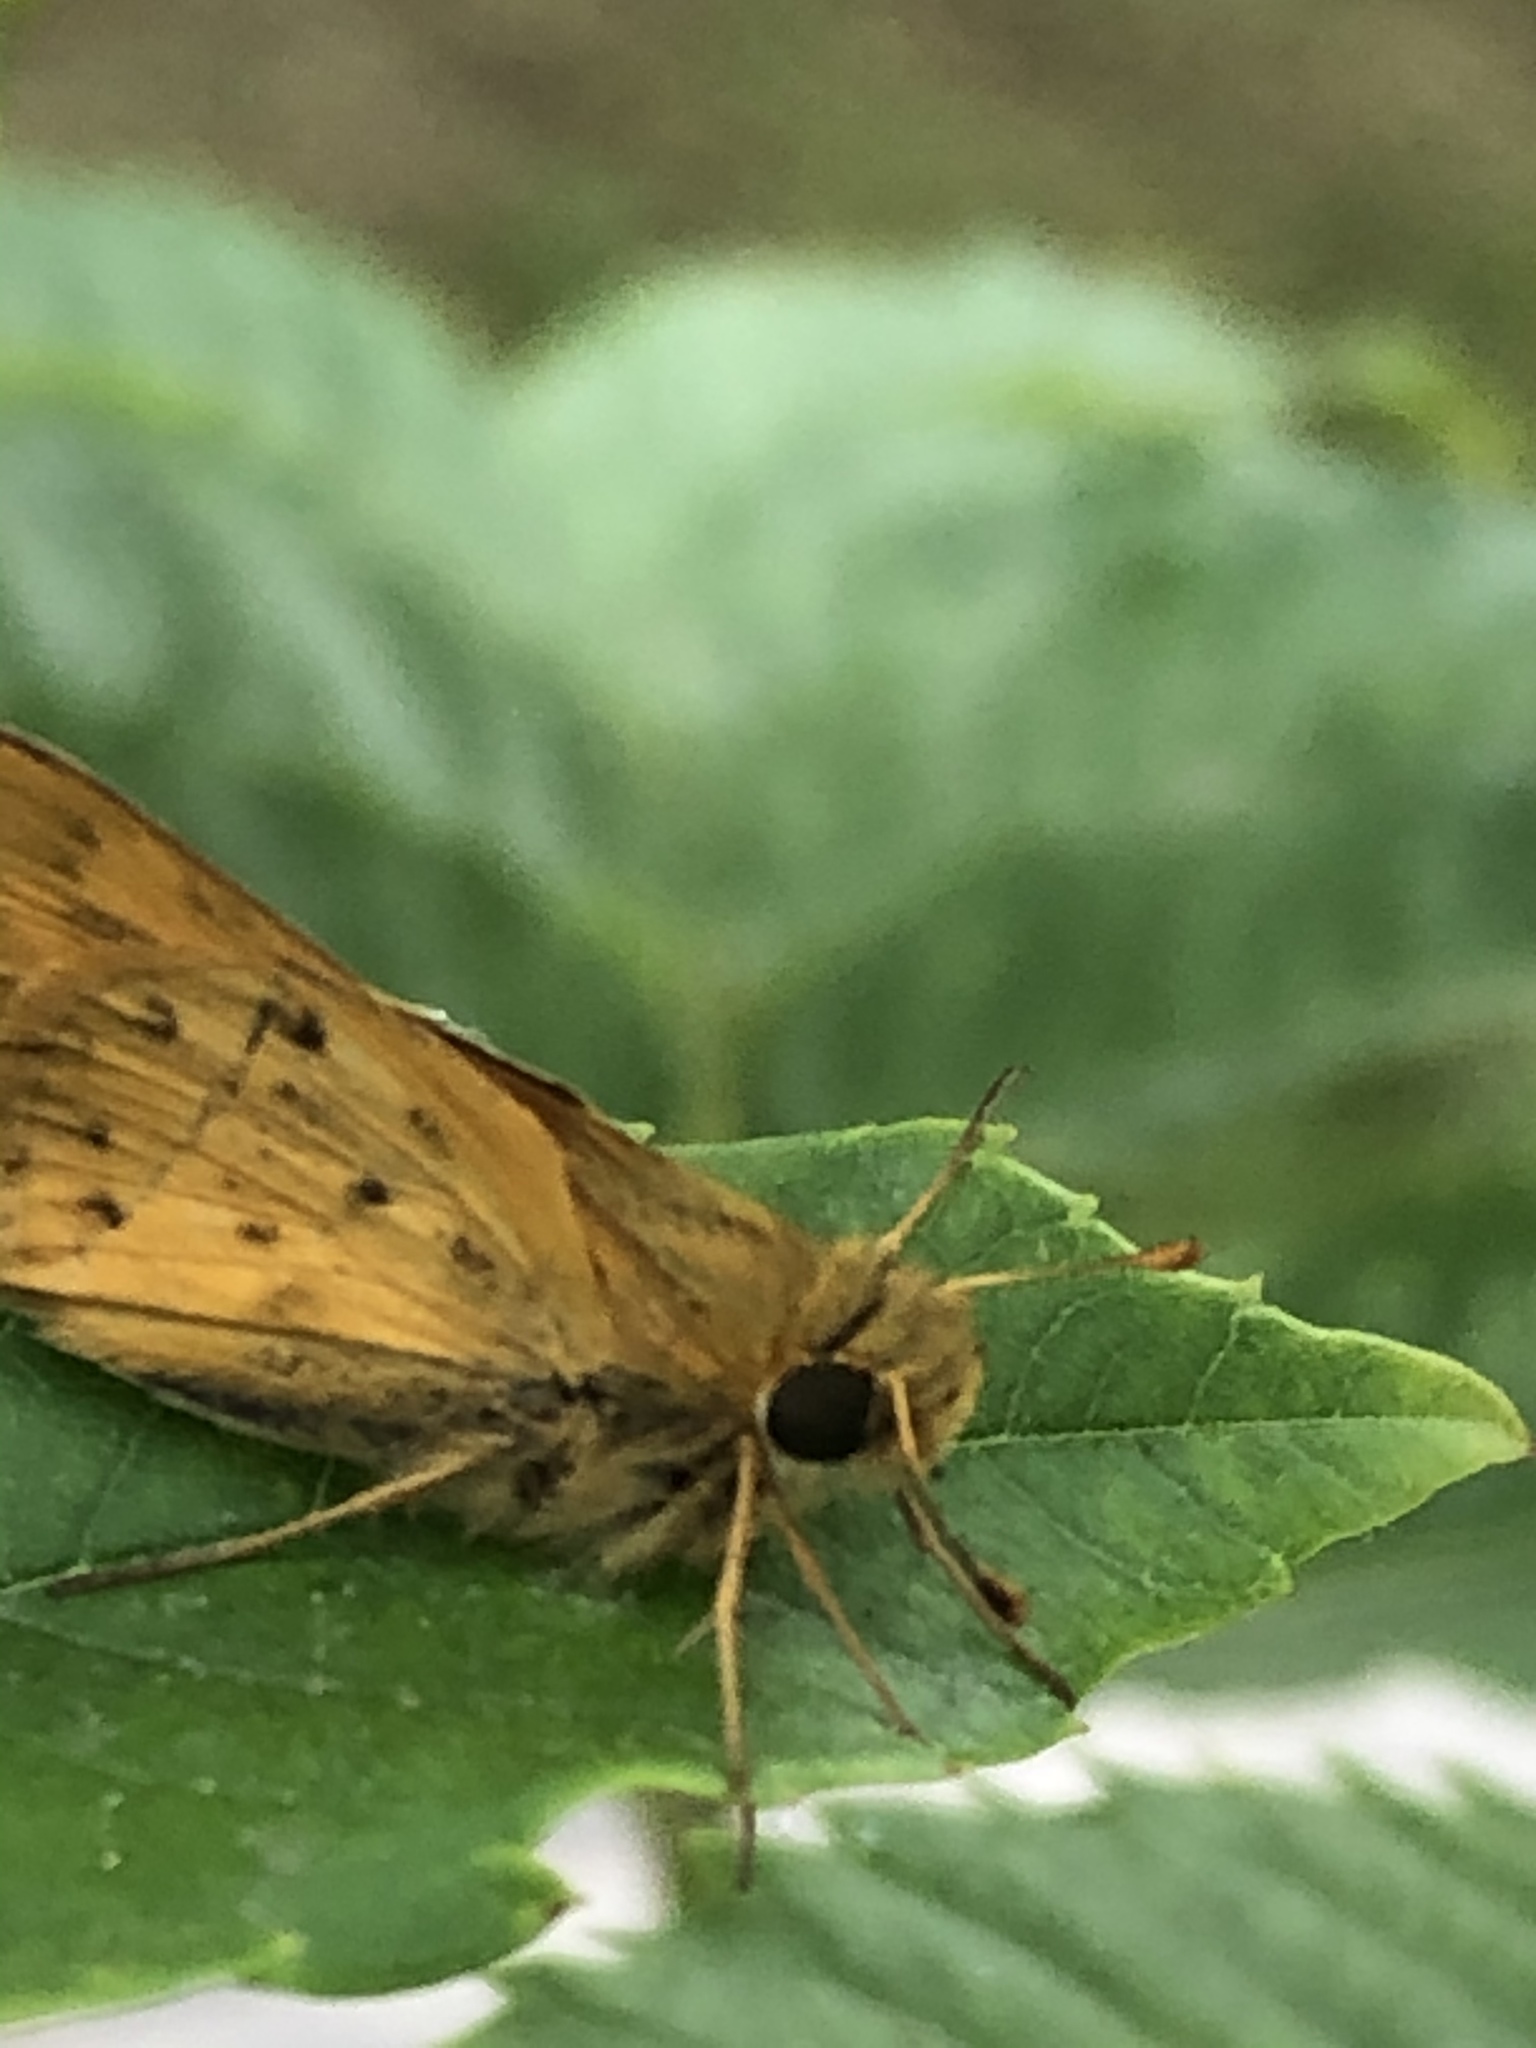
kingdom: Animalia
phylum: Arthropoda
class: Insecta
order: Lepidoptera
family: Hesperiidae
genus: Hylephila
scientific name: Hylephila phyleus
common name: Fiery skipper
